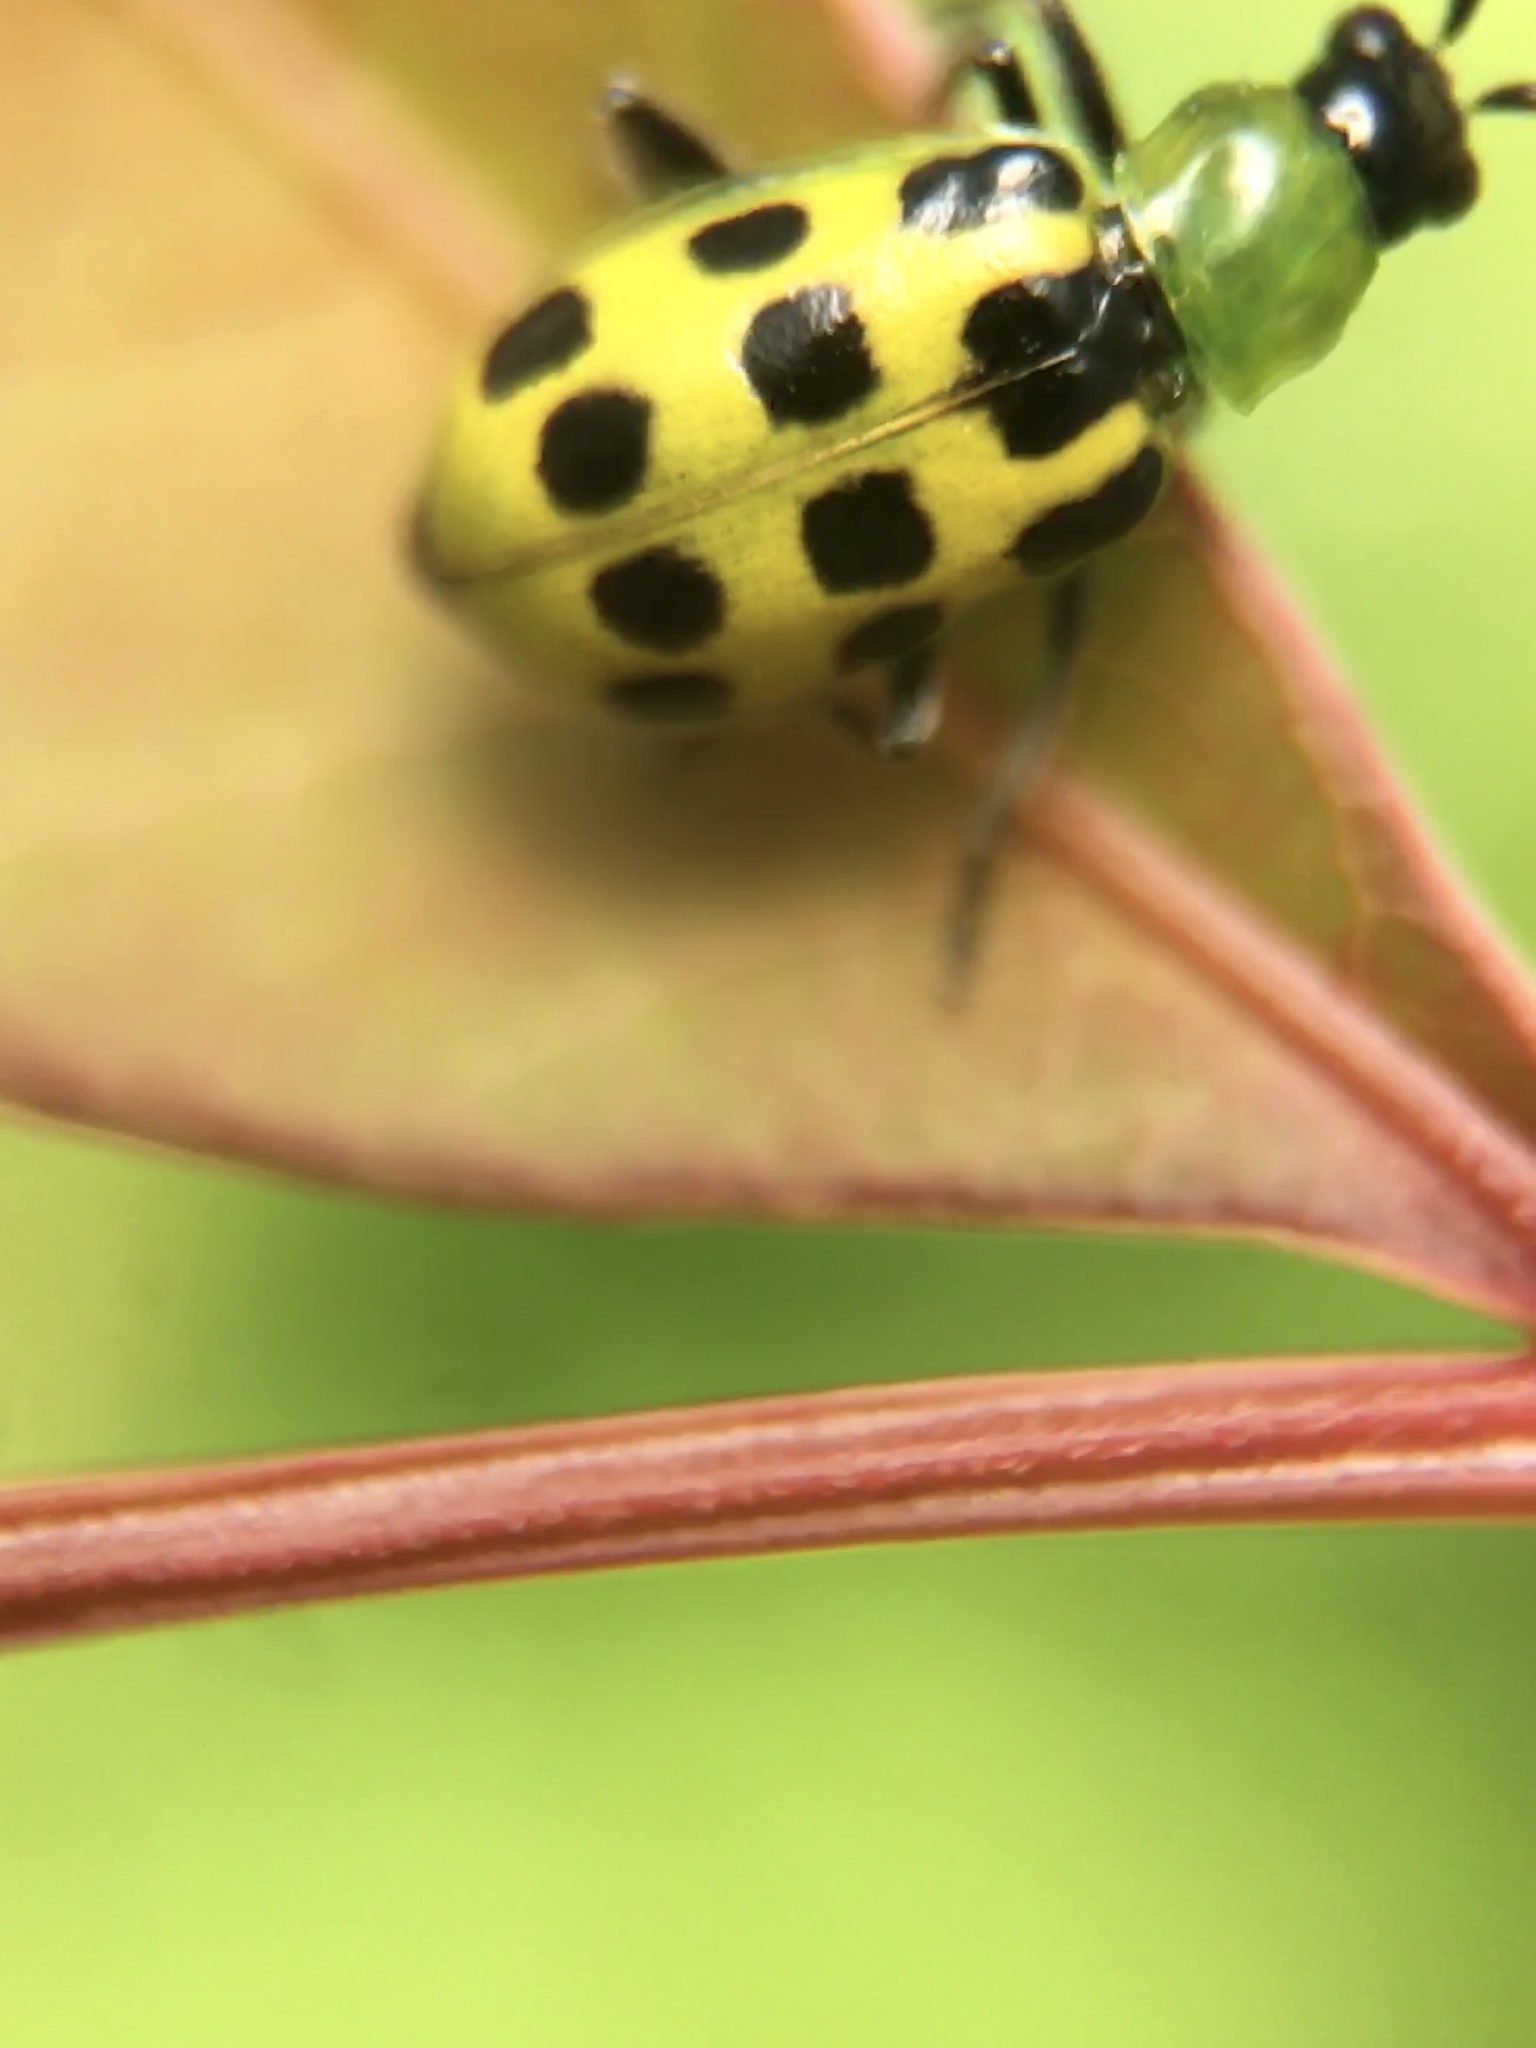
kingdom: Animalia
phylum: Arthropoda
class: Insecta
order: Coleoptera
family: Chrysomelidae
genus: Diabrotica
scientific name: Diabrotica undecimpunctata
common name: Spotted cucumber beetle
